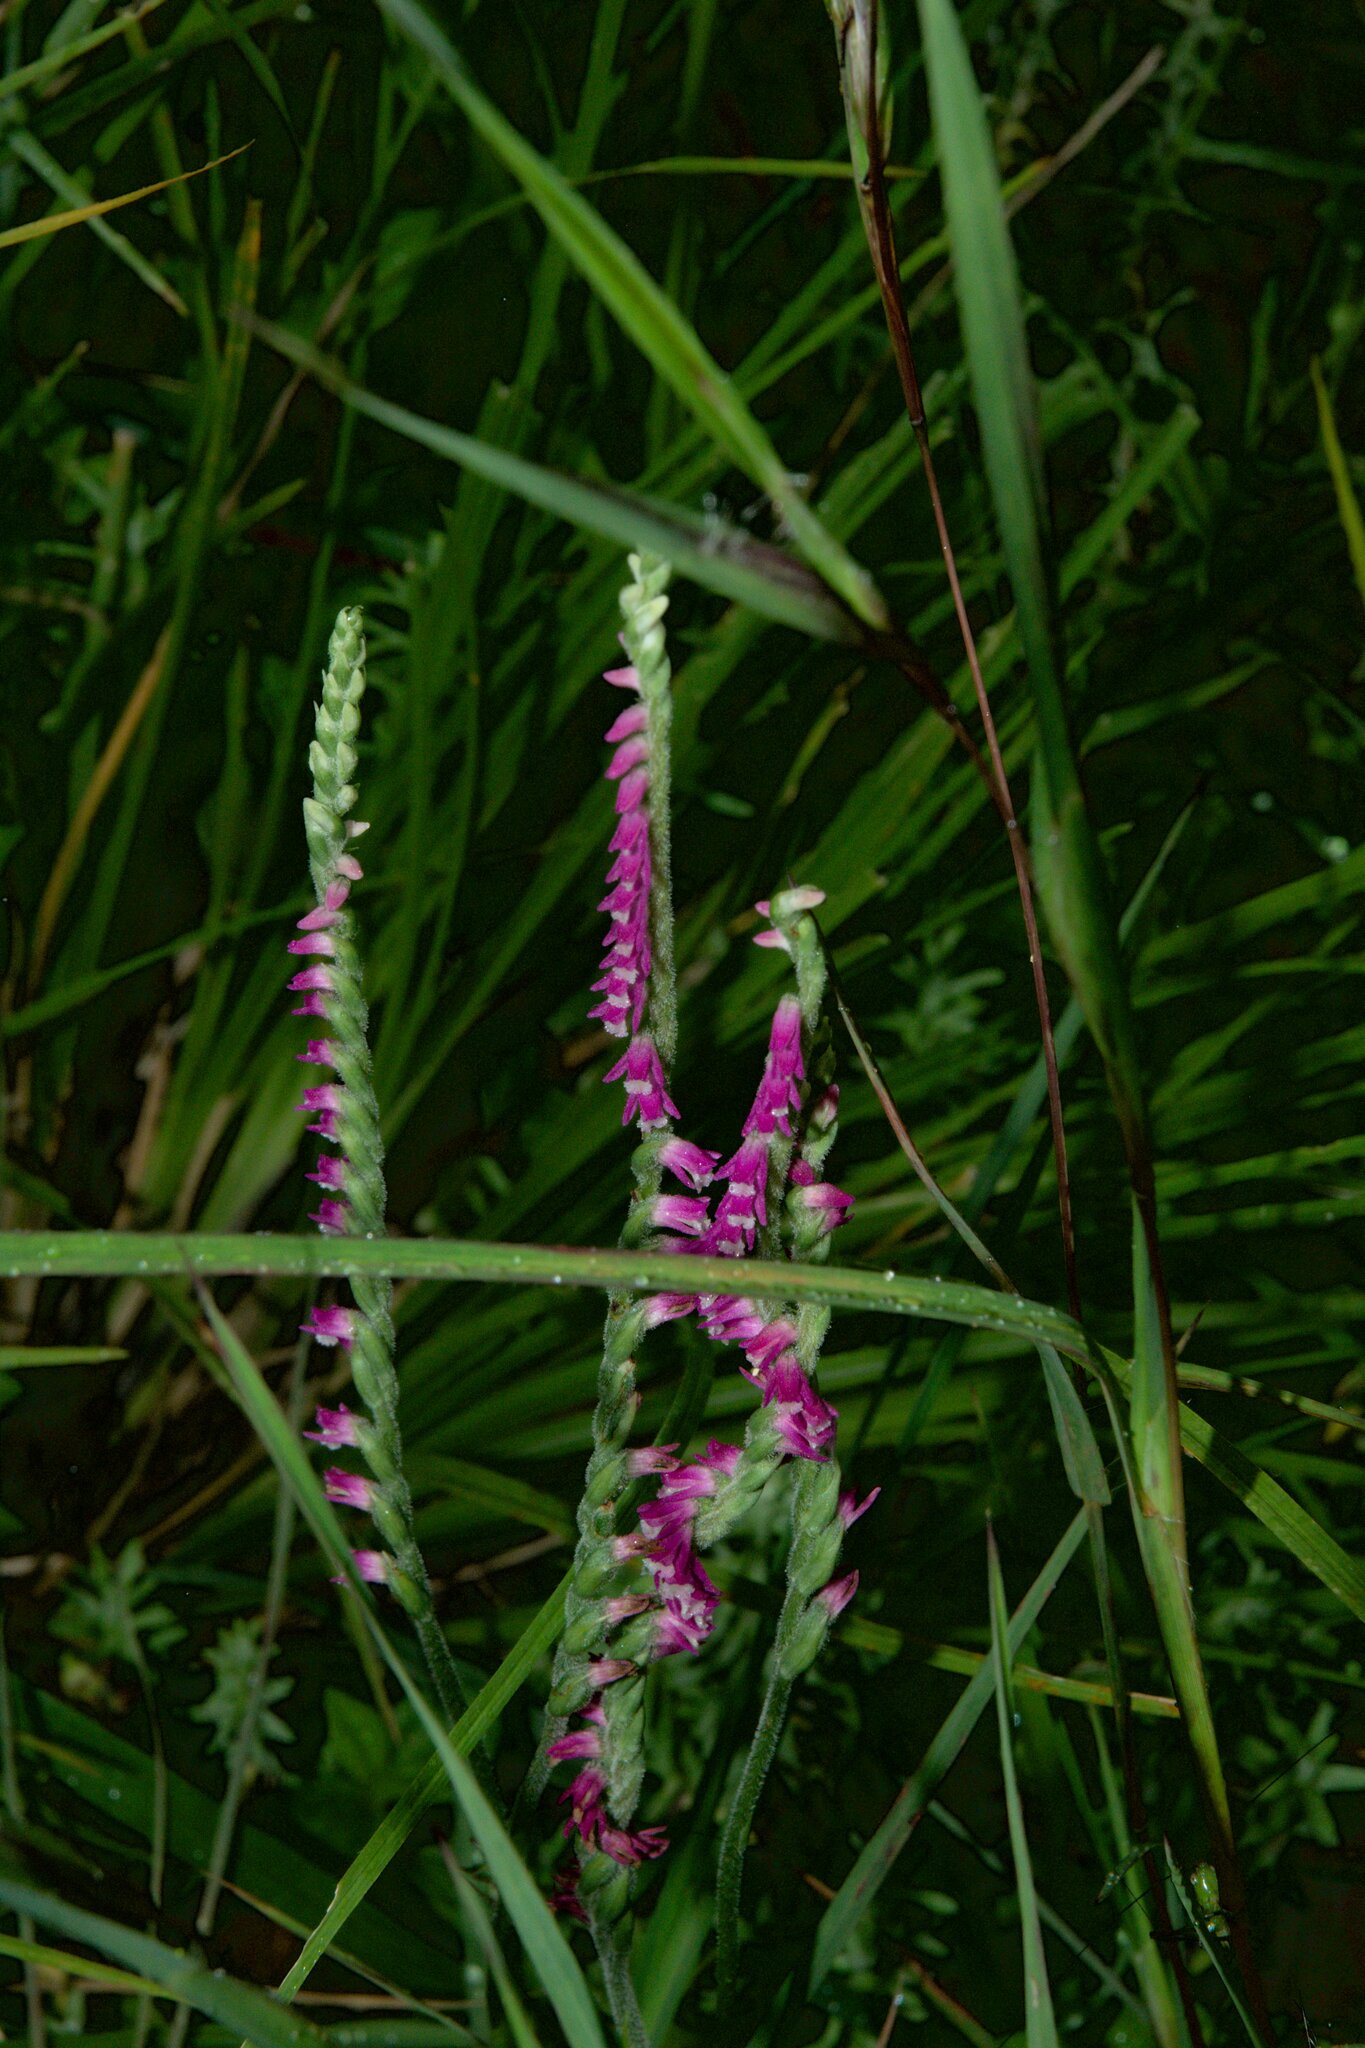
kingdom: Plantae
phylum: Tracheophyta
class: Liliopsida
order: Asparagales
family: Orchidaceae
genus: Spiranthes
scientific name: Spiranthes australis
